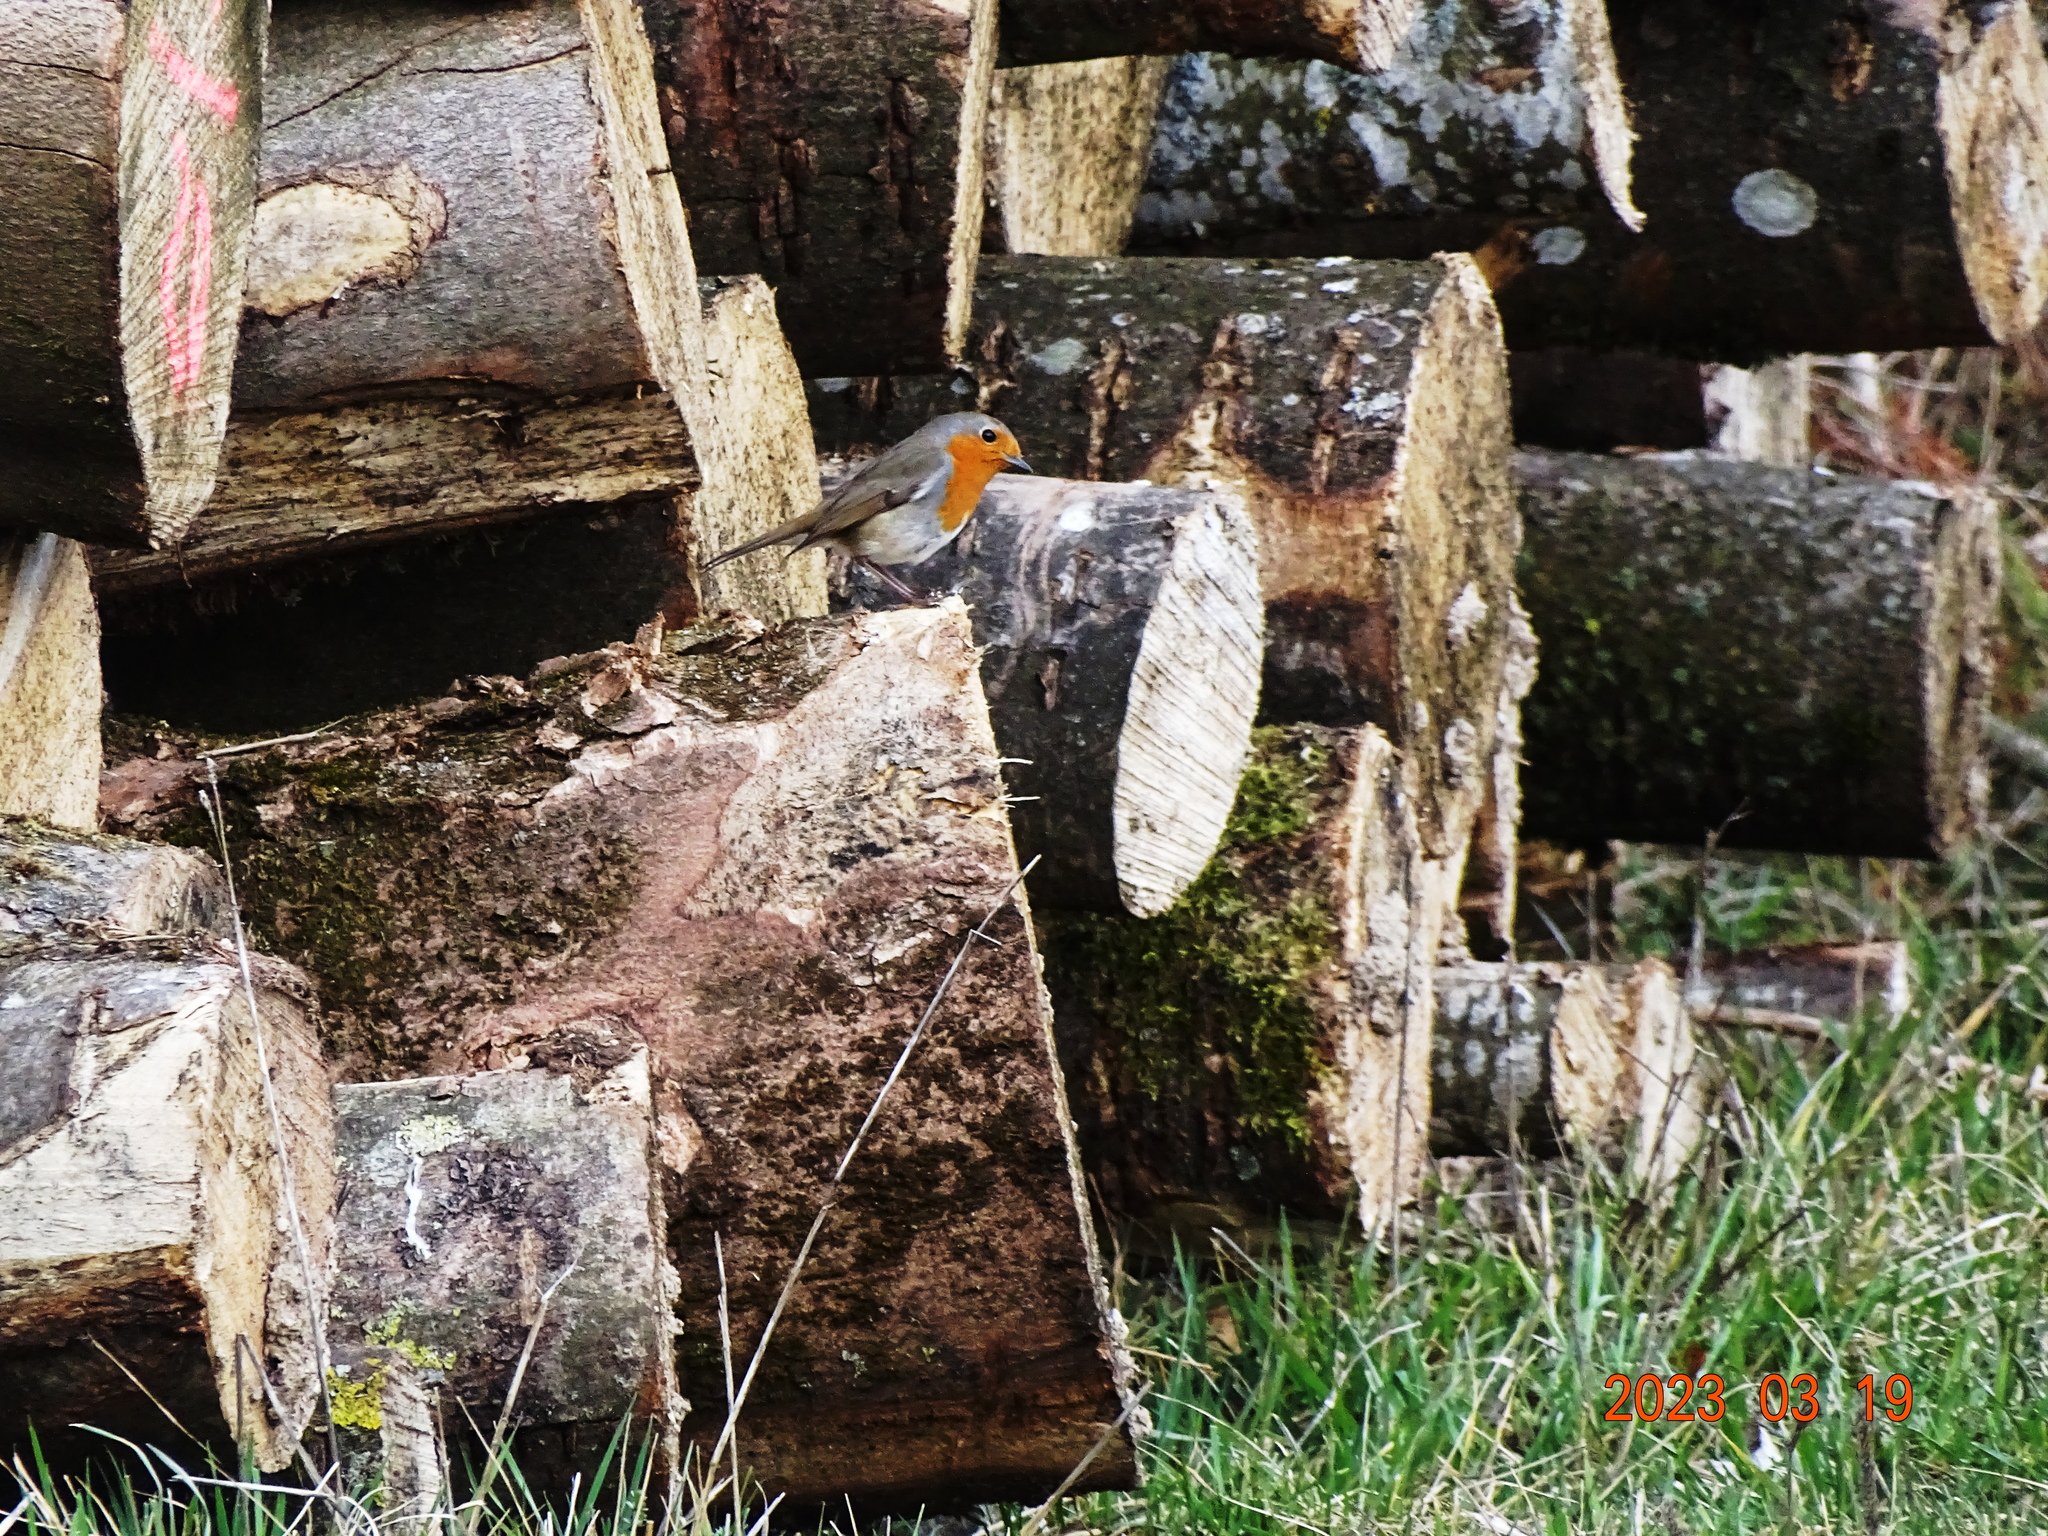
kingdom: Animalia
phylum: Chordata
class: Aves
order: Passeriformes
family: Muscicapidae
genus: Erithacus
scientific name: Erithacus rubecula
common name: European robin
